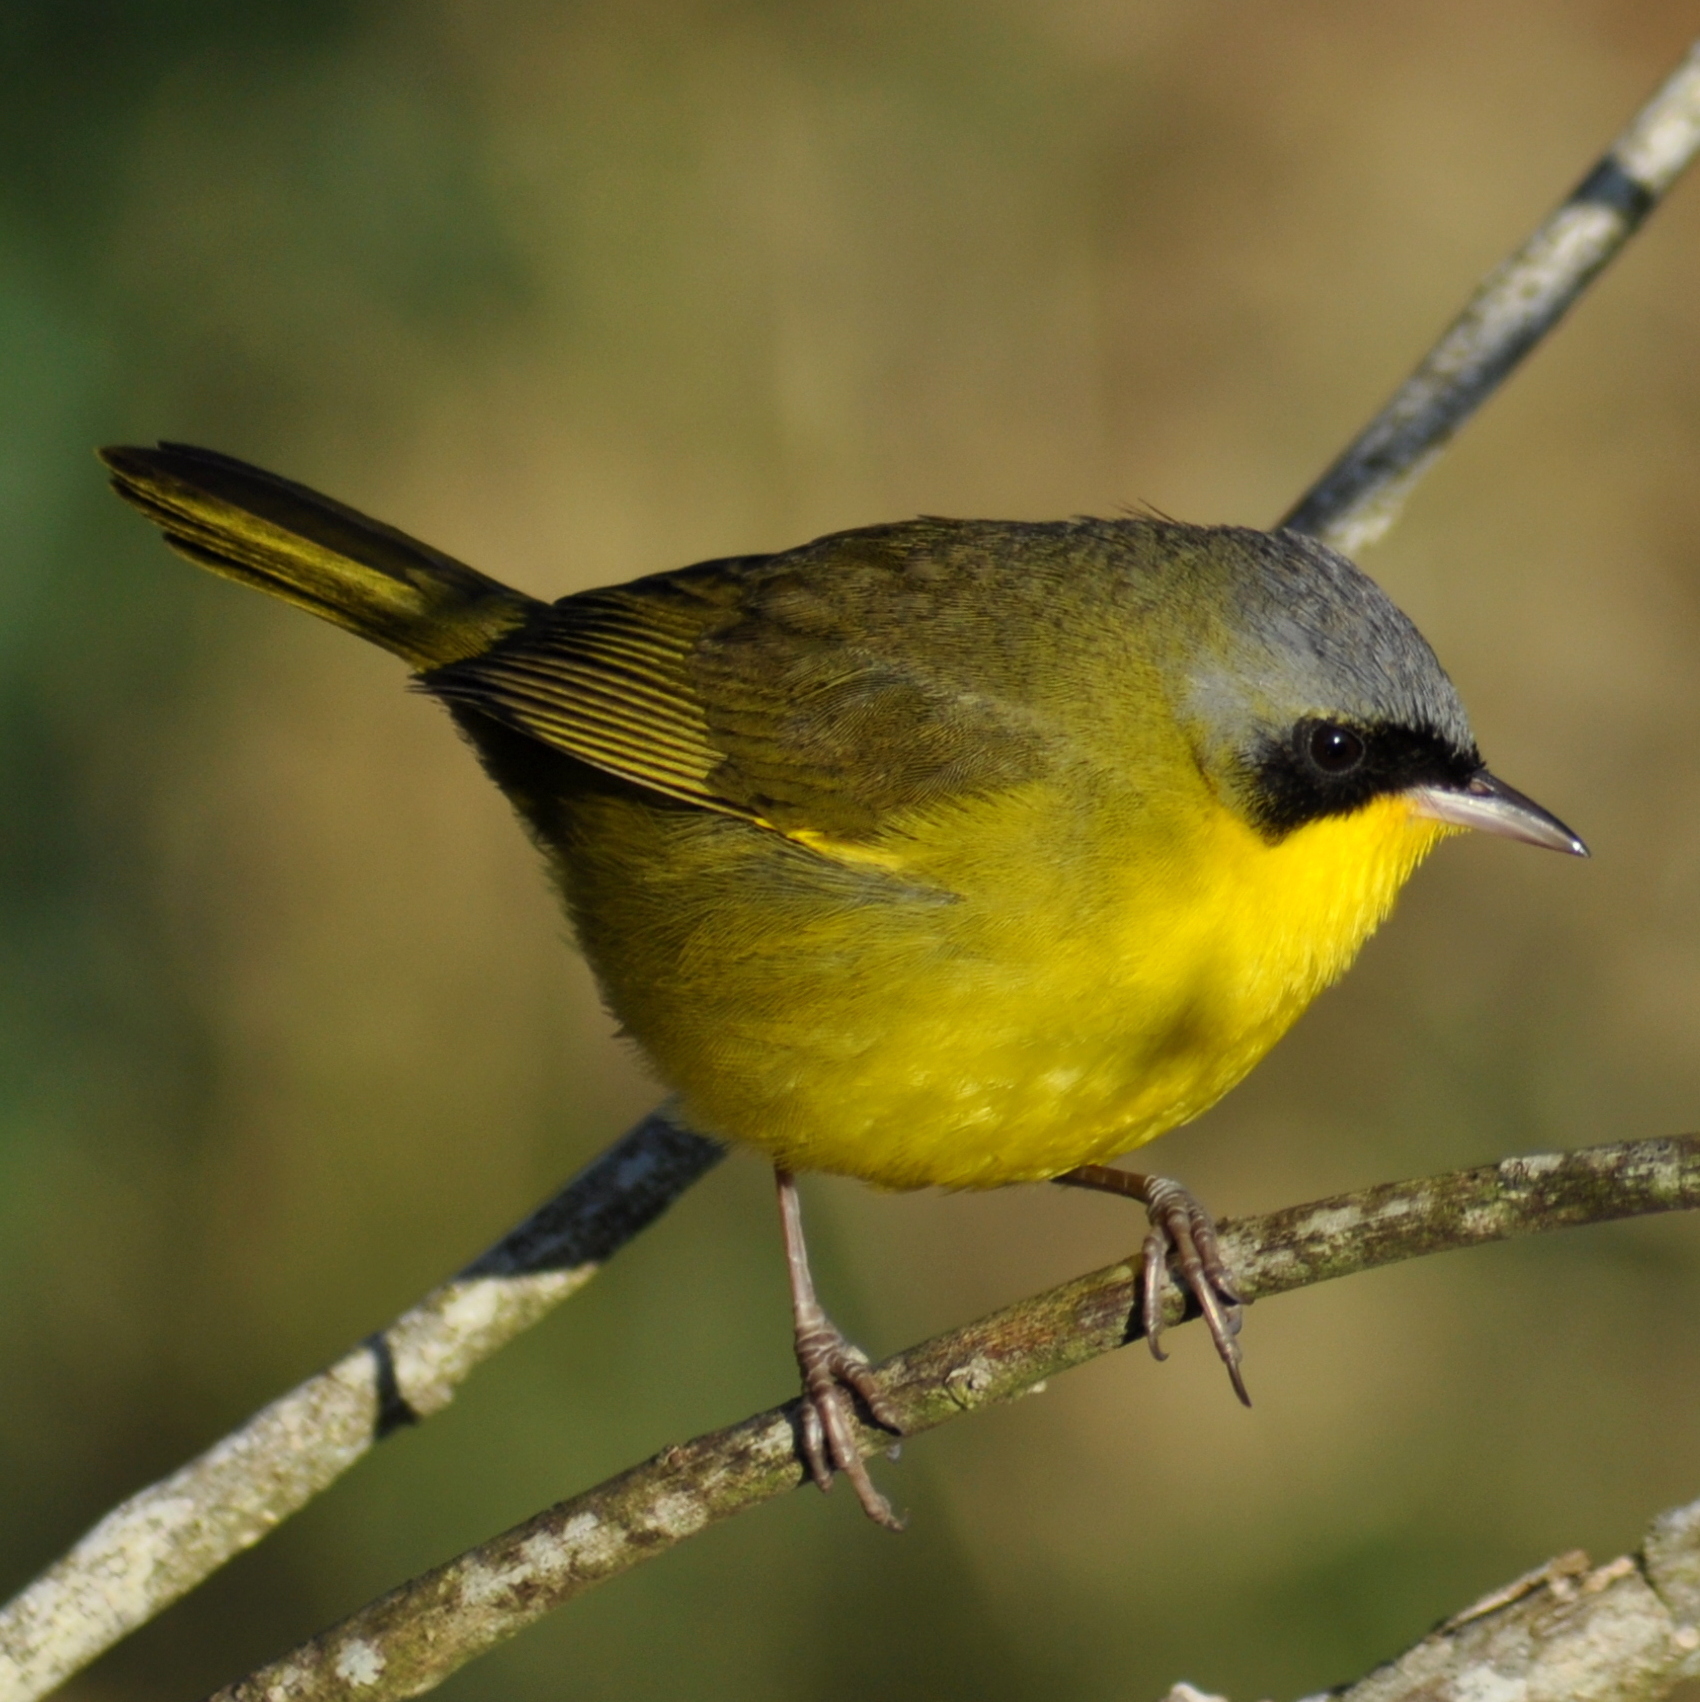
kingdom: Animalia
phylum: Chordata
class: Aves
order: Passeriformes
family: Parulidae
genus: Geothlypis
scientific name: Geothlypis velata
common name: Southern yellowthroat
